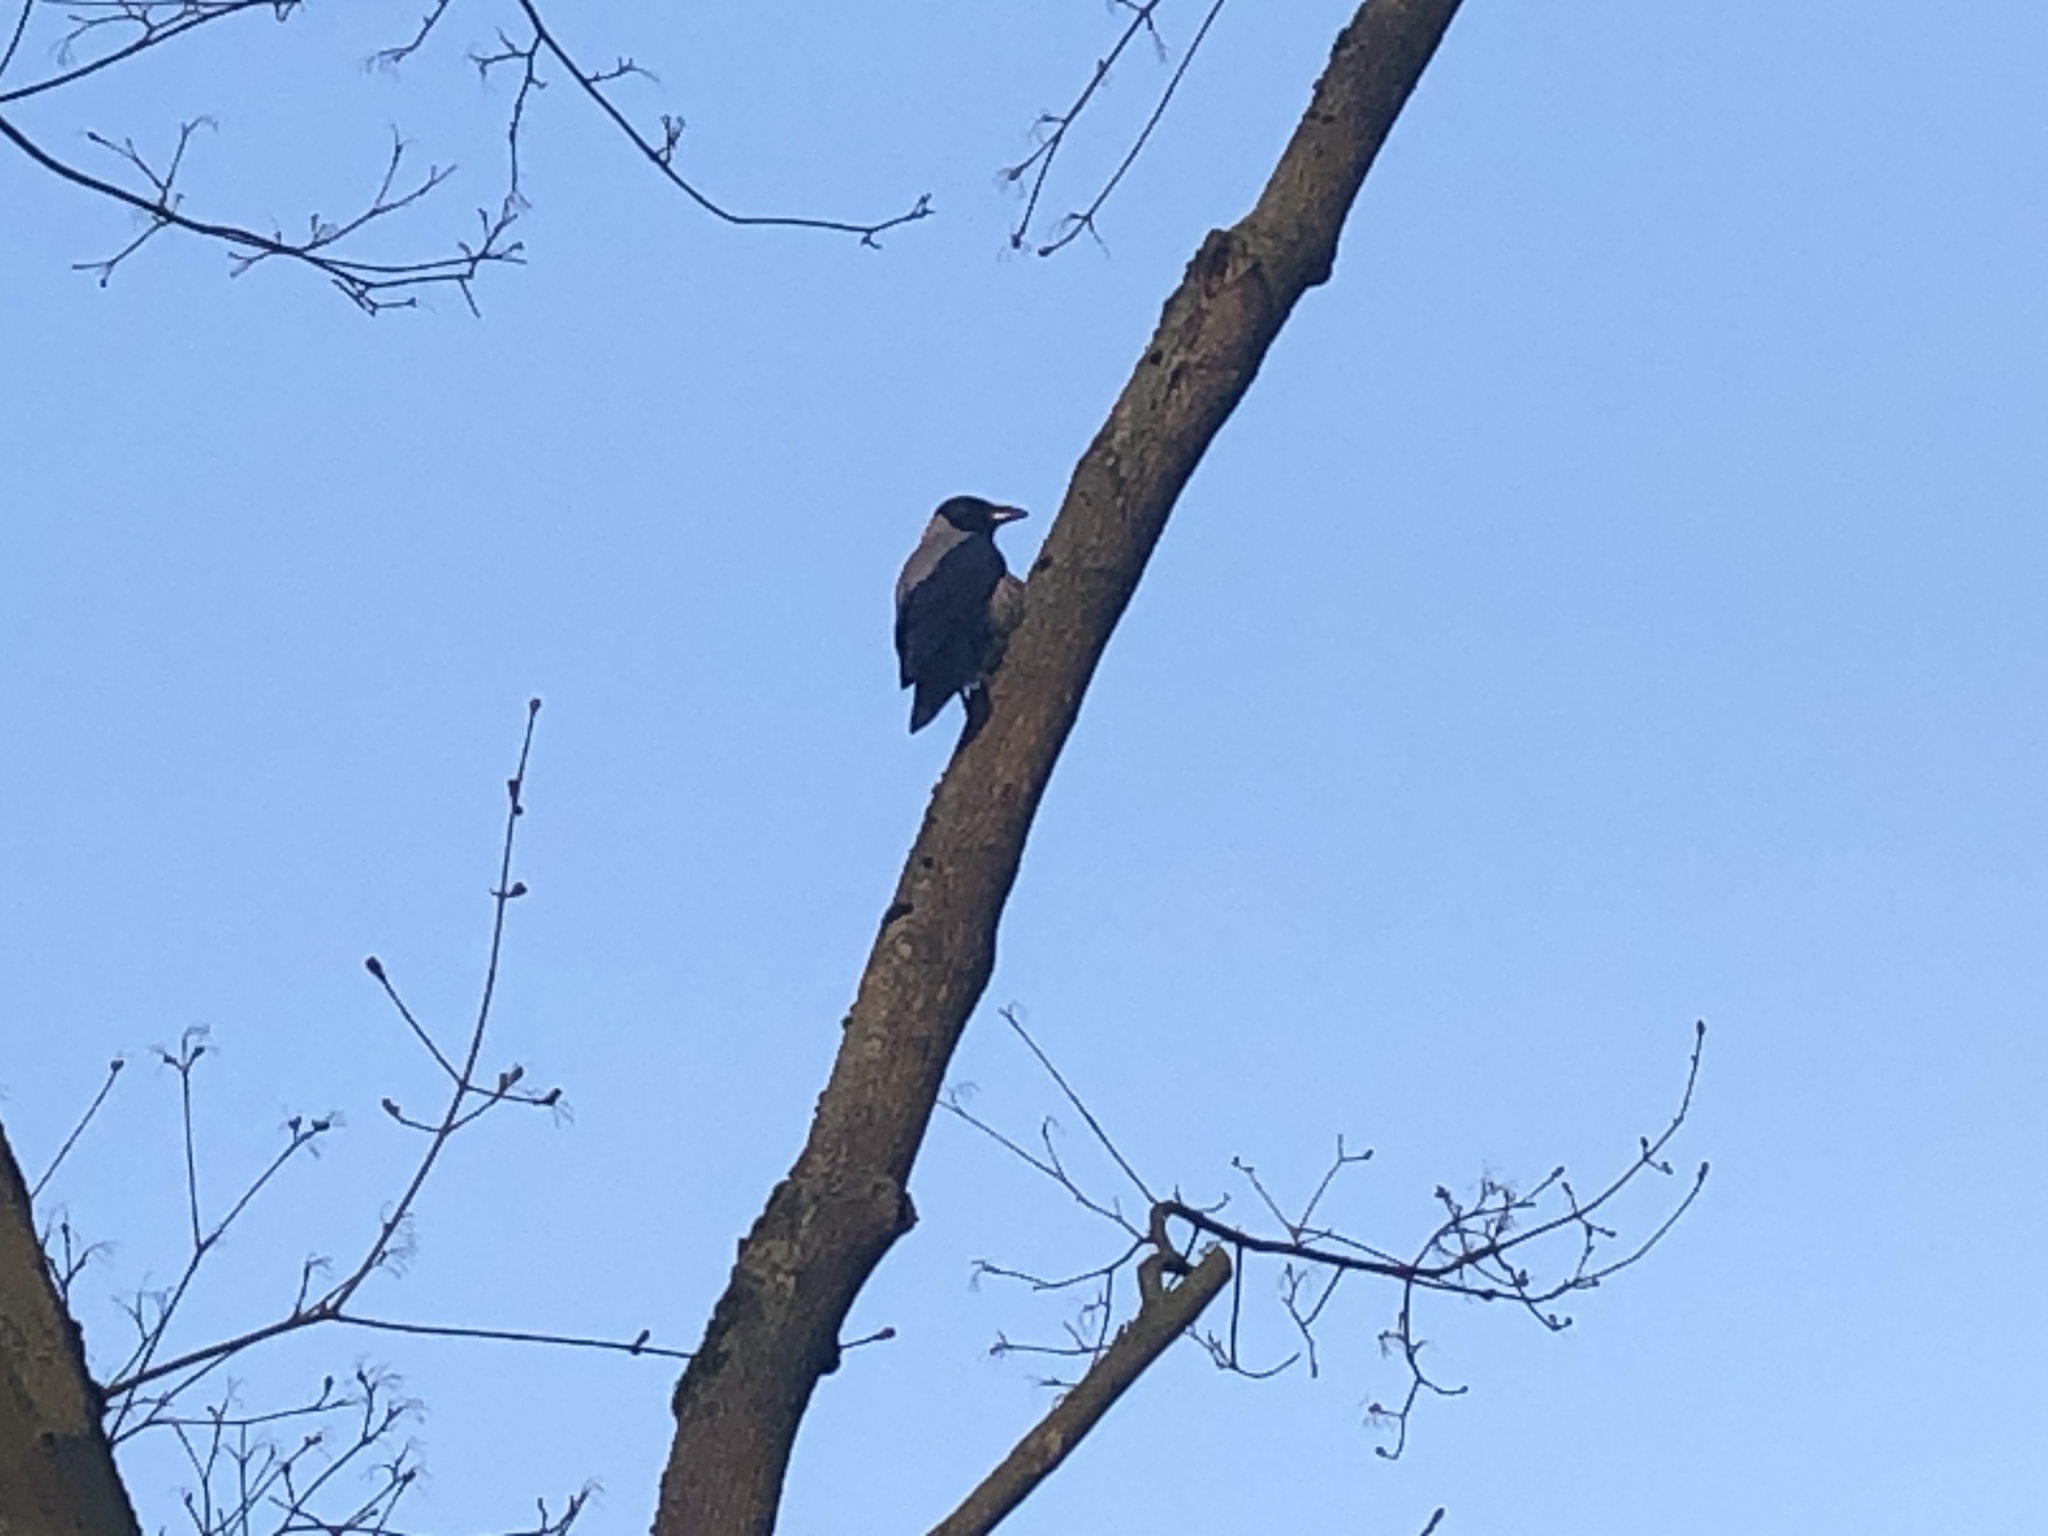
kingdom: Animalia
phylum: Chordata
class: Aves
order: Passeriformes
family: Corvidae
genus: Corvus
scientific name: Corvus cornix
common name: Hooded crow
